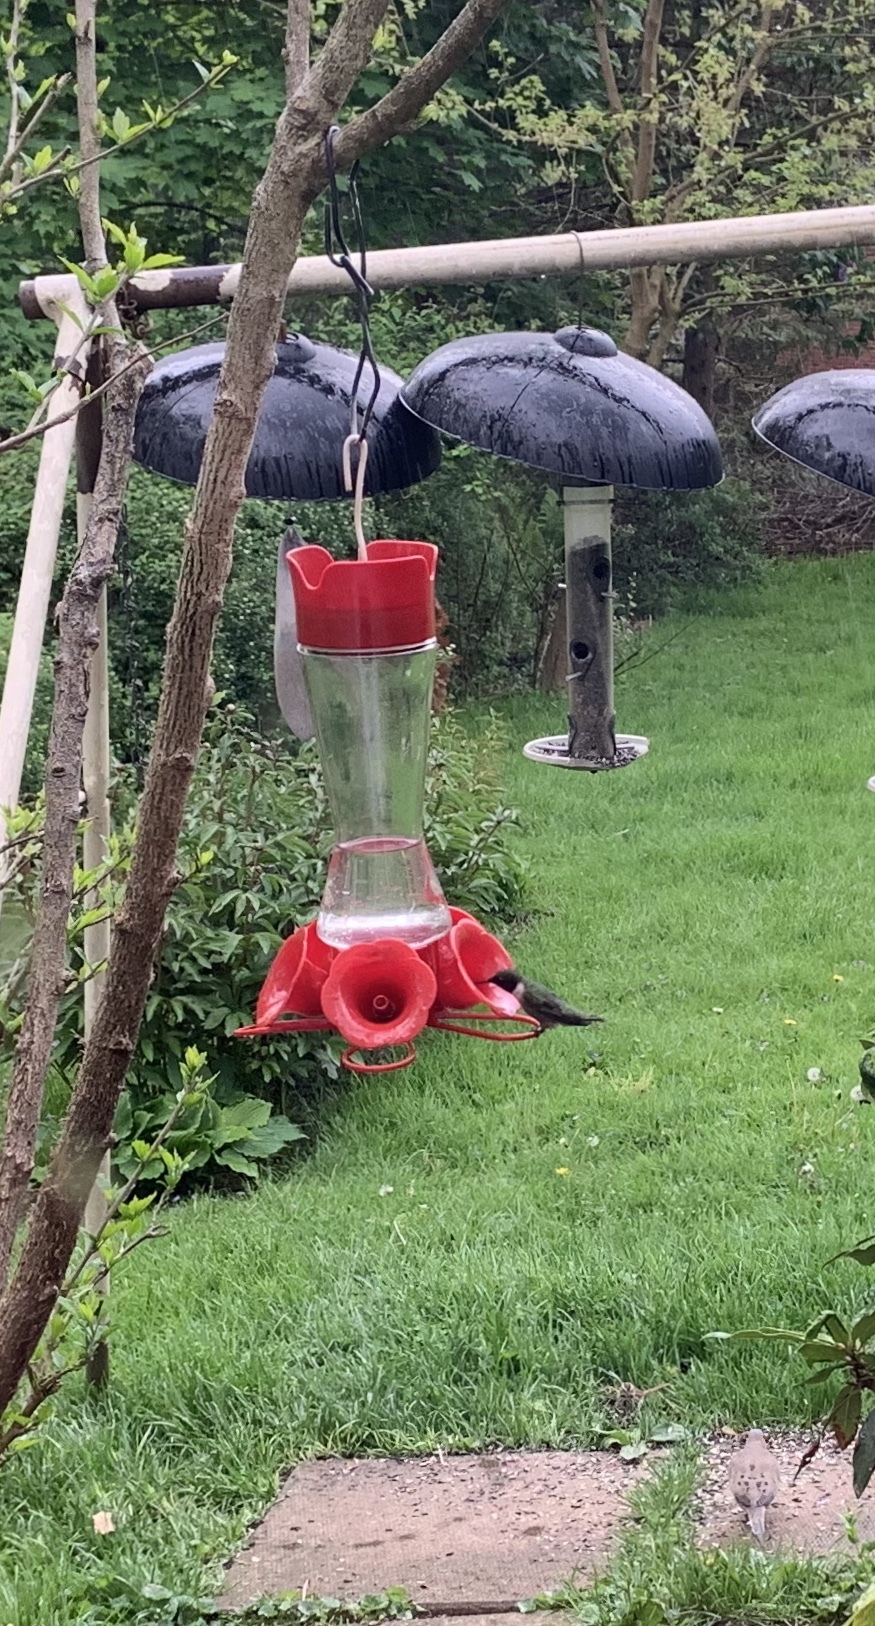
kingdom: Animalia
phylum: Chordata
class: Aves
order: Apodiformes
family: Trochilidae
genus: Archilochus
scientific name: Archilochus colubris
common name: Ruby-throated hummingbird
